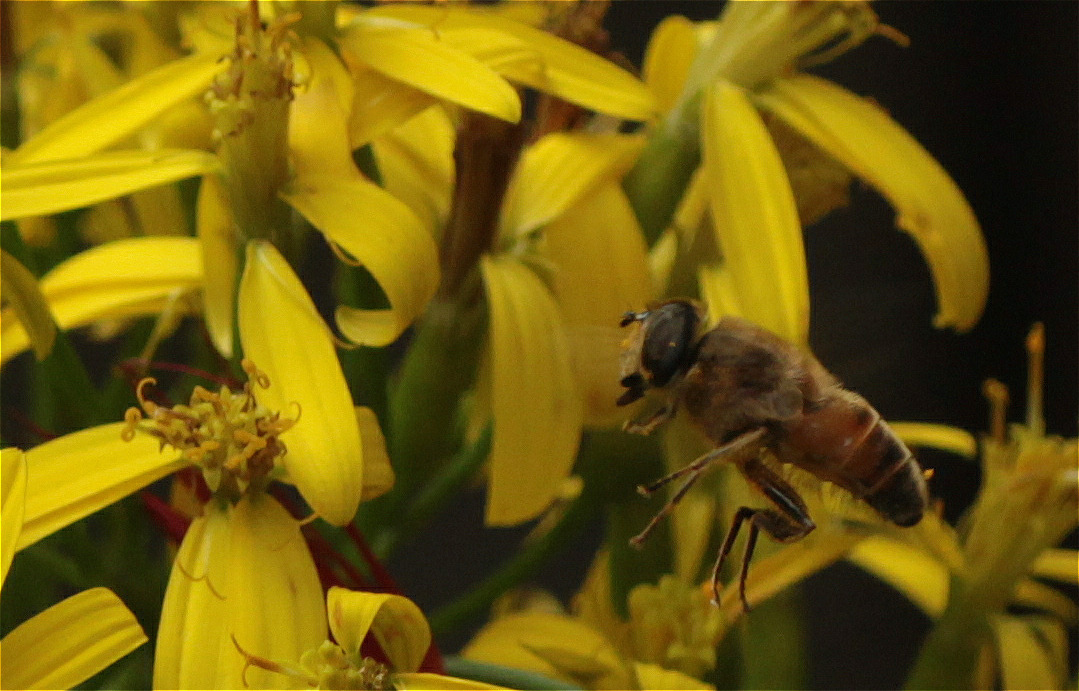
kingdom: Animalia
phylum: Arthropoda
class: Insecta
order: Diptera
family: Syrphidae
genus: Eristalis
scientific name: Eristalis tenax
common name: Drone fly
